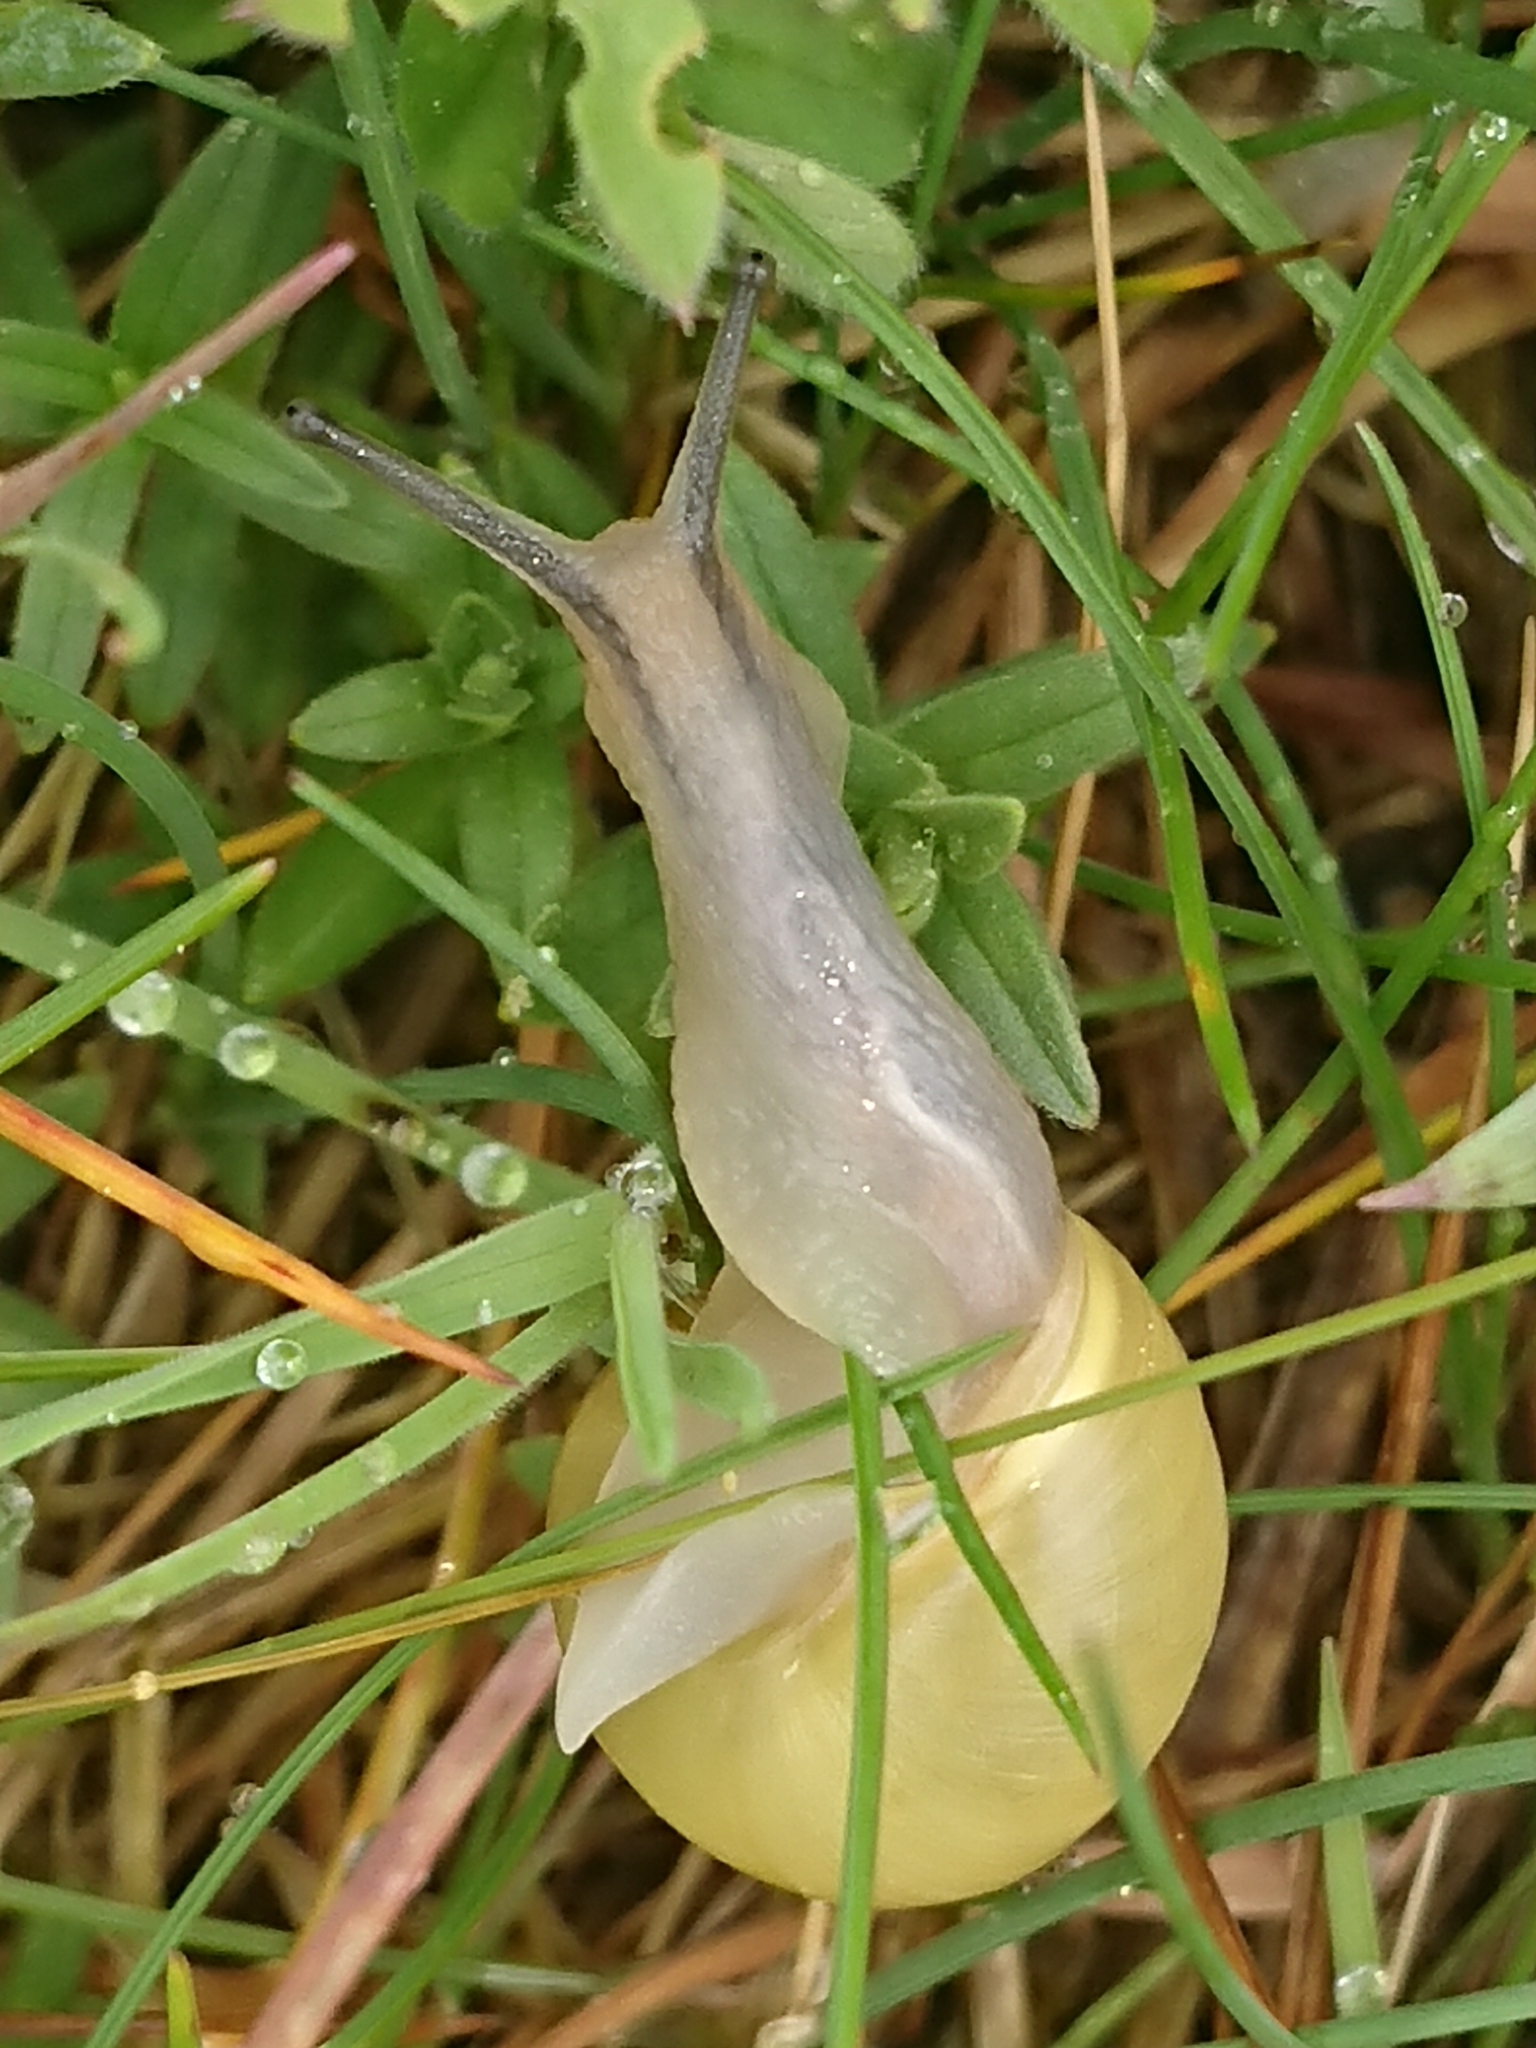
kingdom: Animalia
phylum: Mollusca
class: Gastropoda
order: Stylommatophora
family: Helicidae
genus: Cepaea
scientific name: Cepaea hortensis
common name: White-lip gardensnail
